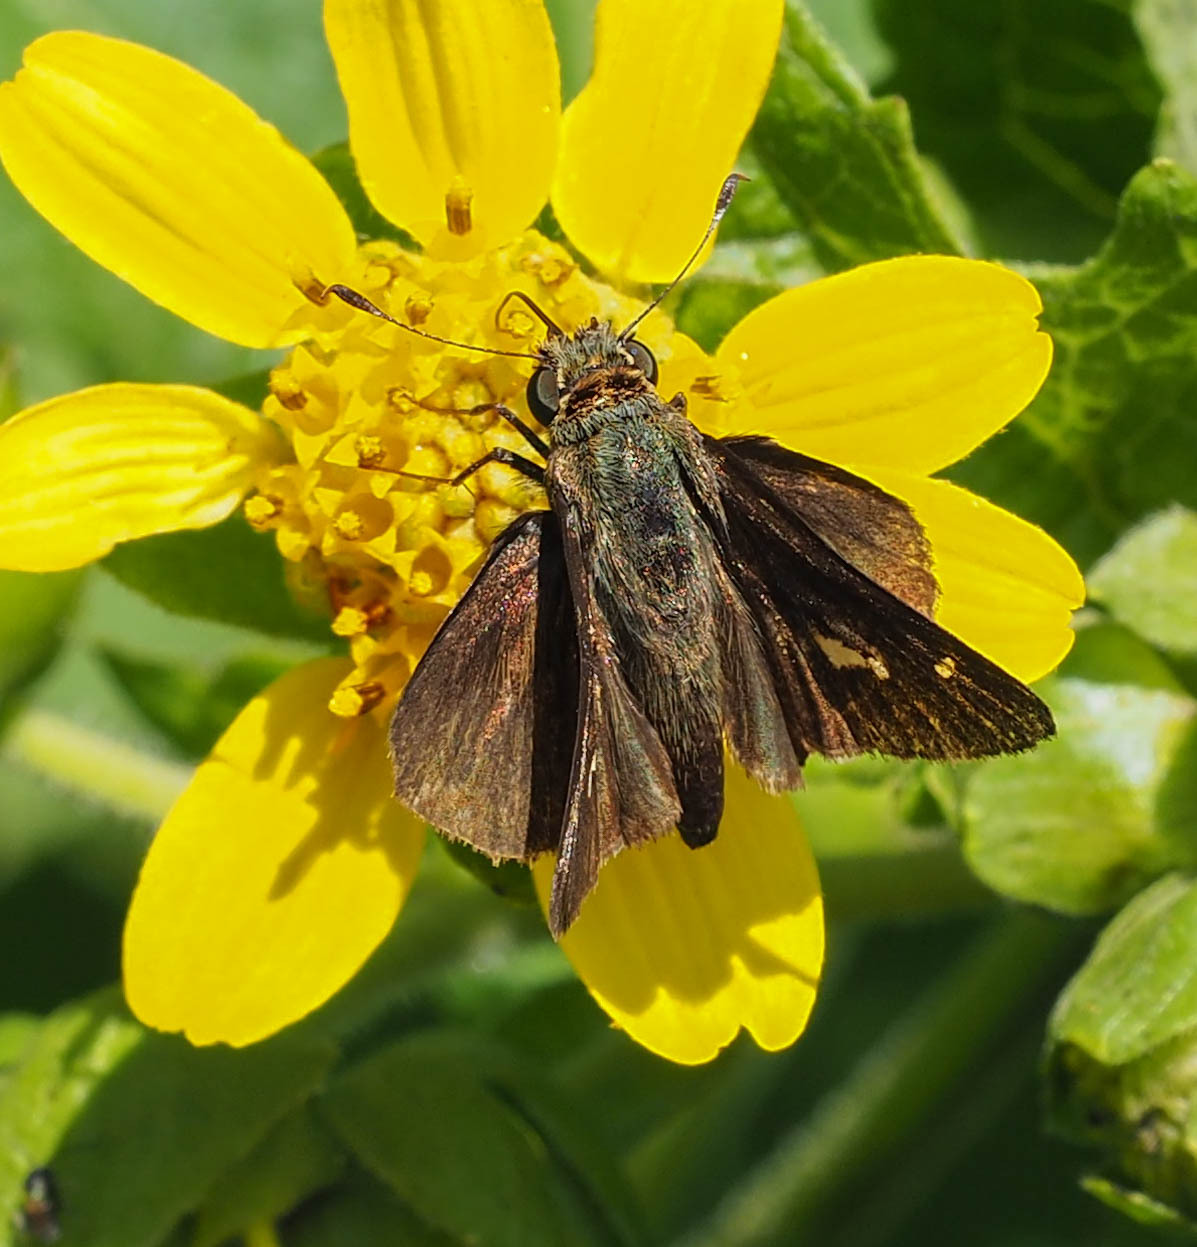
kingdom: Animalia
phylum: Arthropoda
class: Insecta
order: Lepidoptera
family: Hesperiidae
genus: Vernia
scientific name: Vernia verna
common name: Little glassywing
